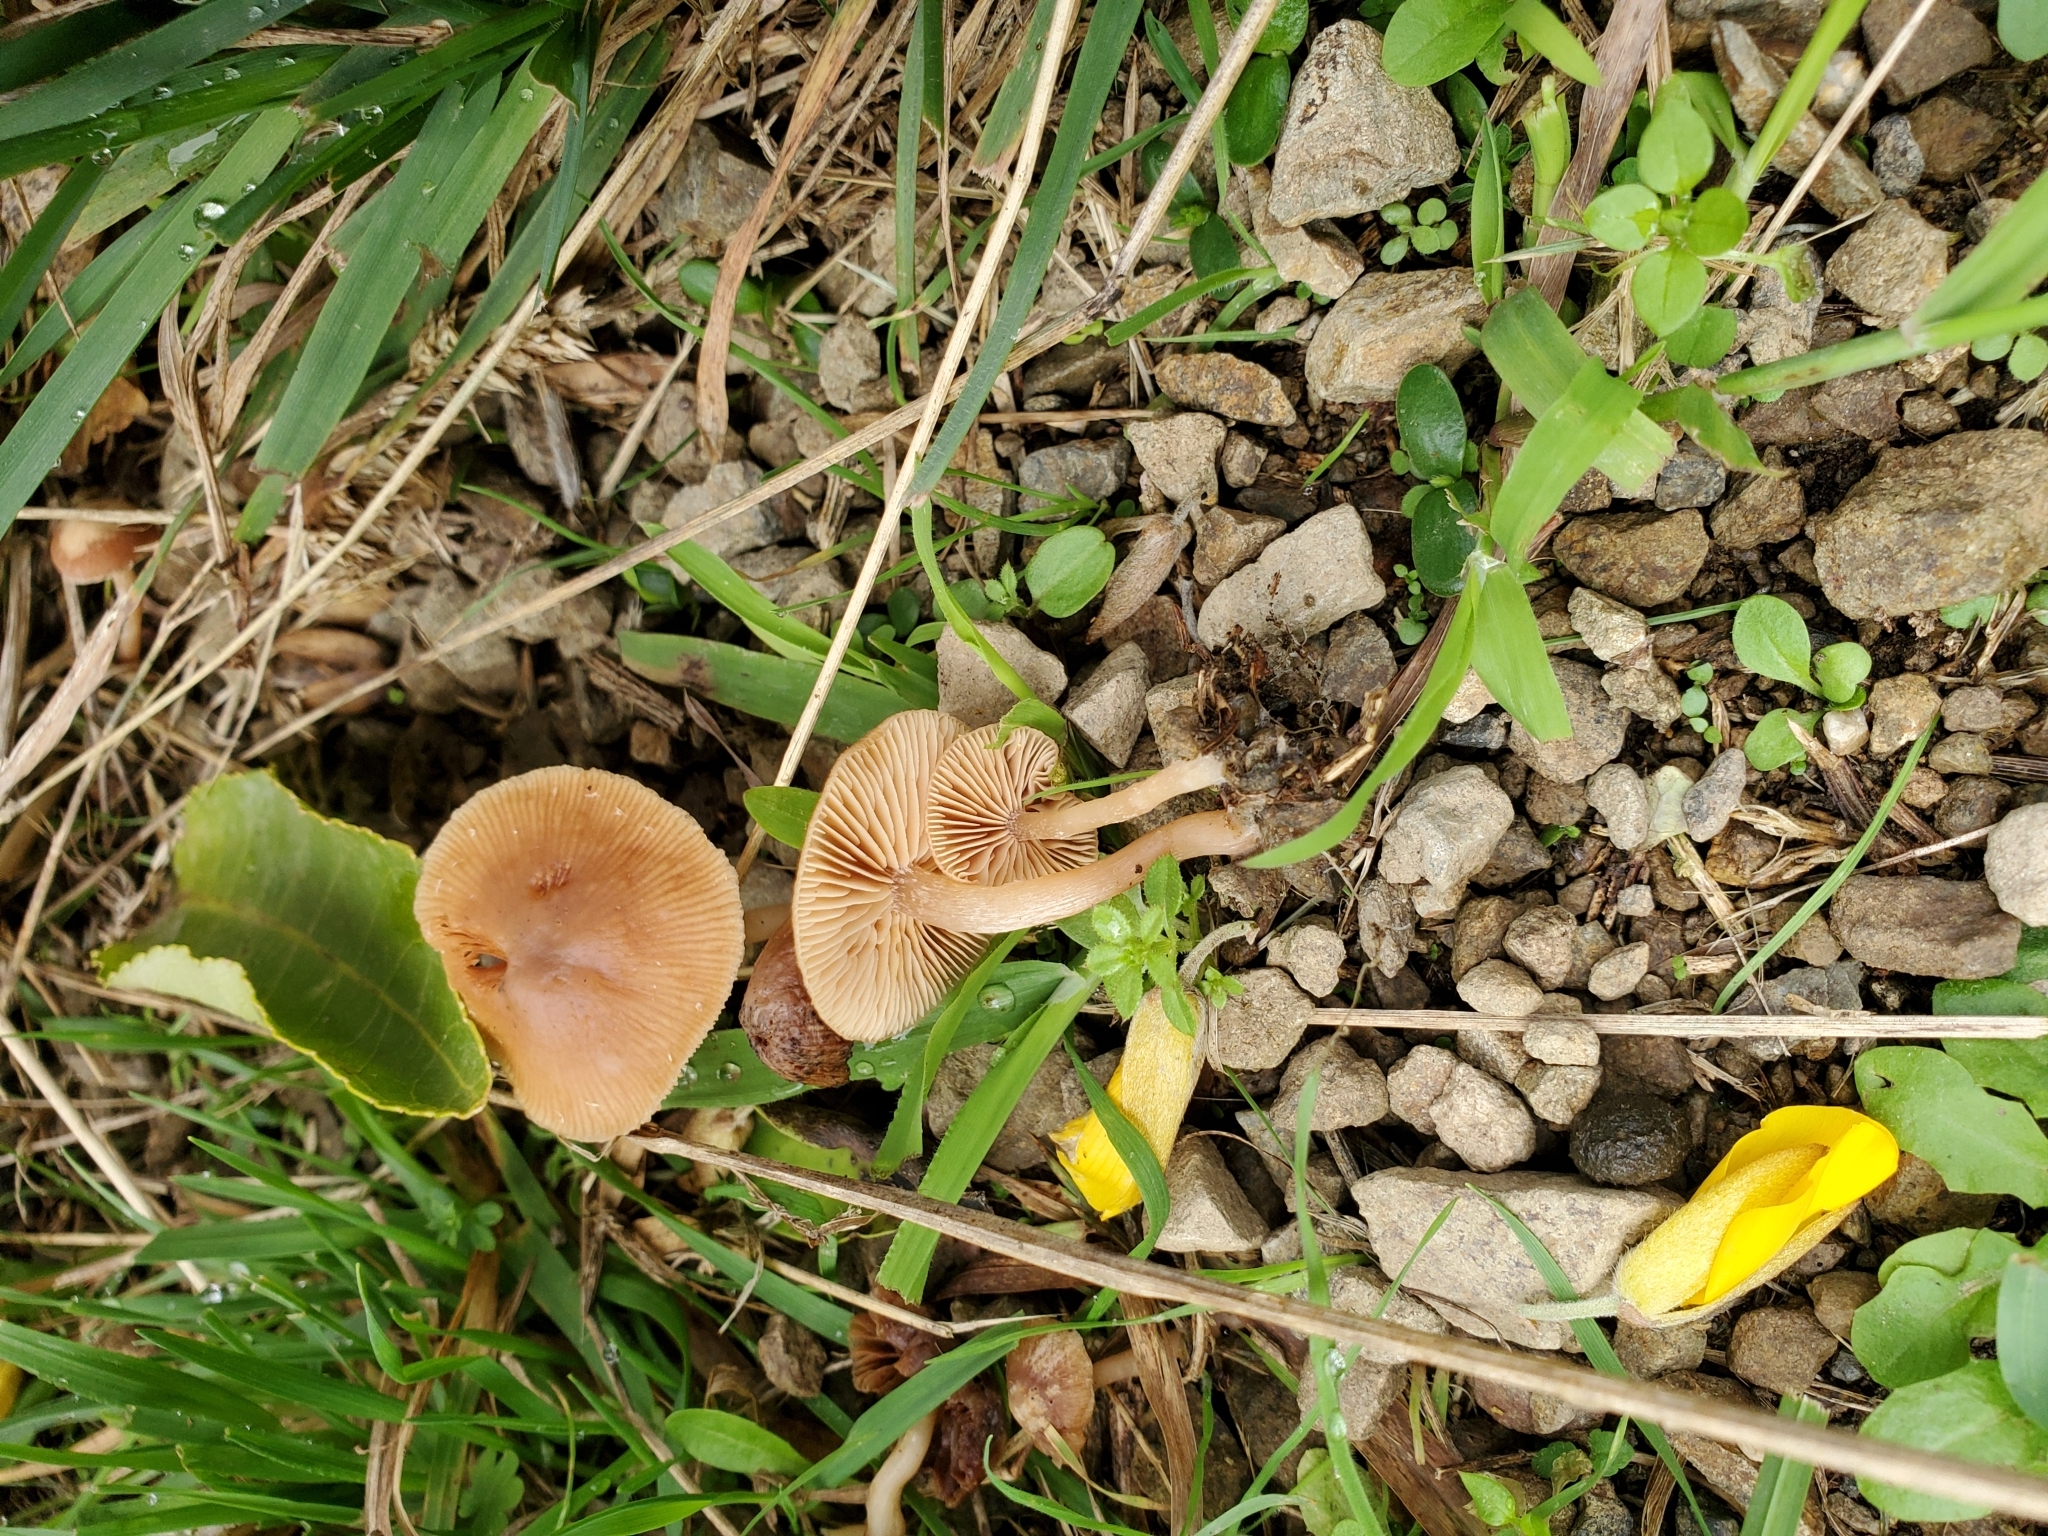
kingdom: Fungi
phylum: Basidiomycota
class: Agaricomycetes
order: Agaricales
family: Tubariaceae
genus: Tubaria
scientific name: Tubaria furfuracea
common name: Scurfy twiglet
